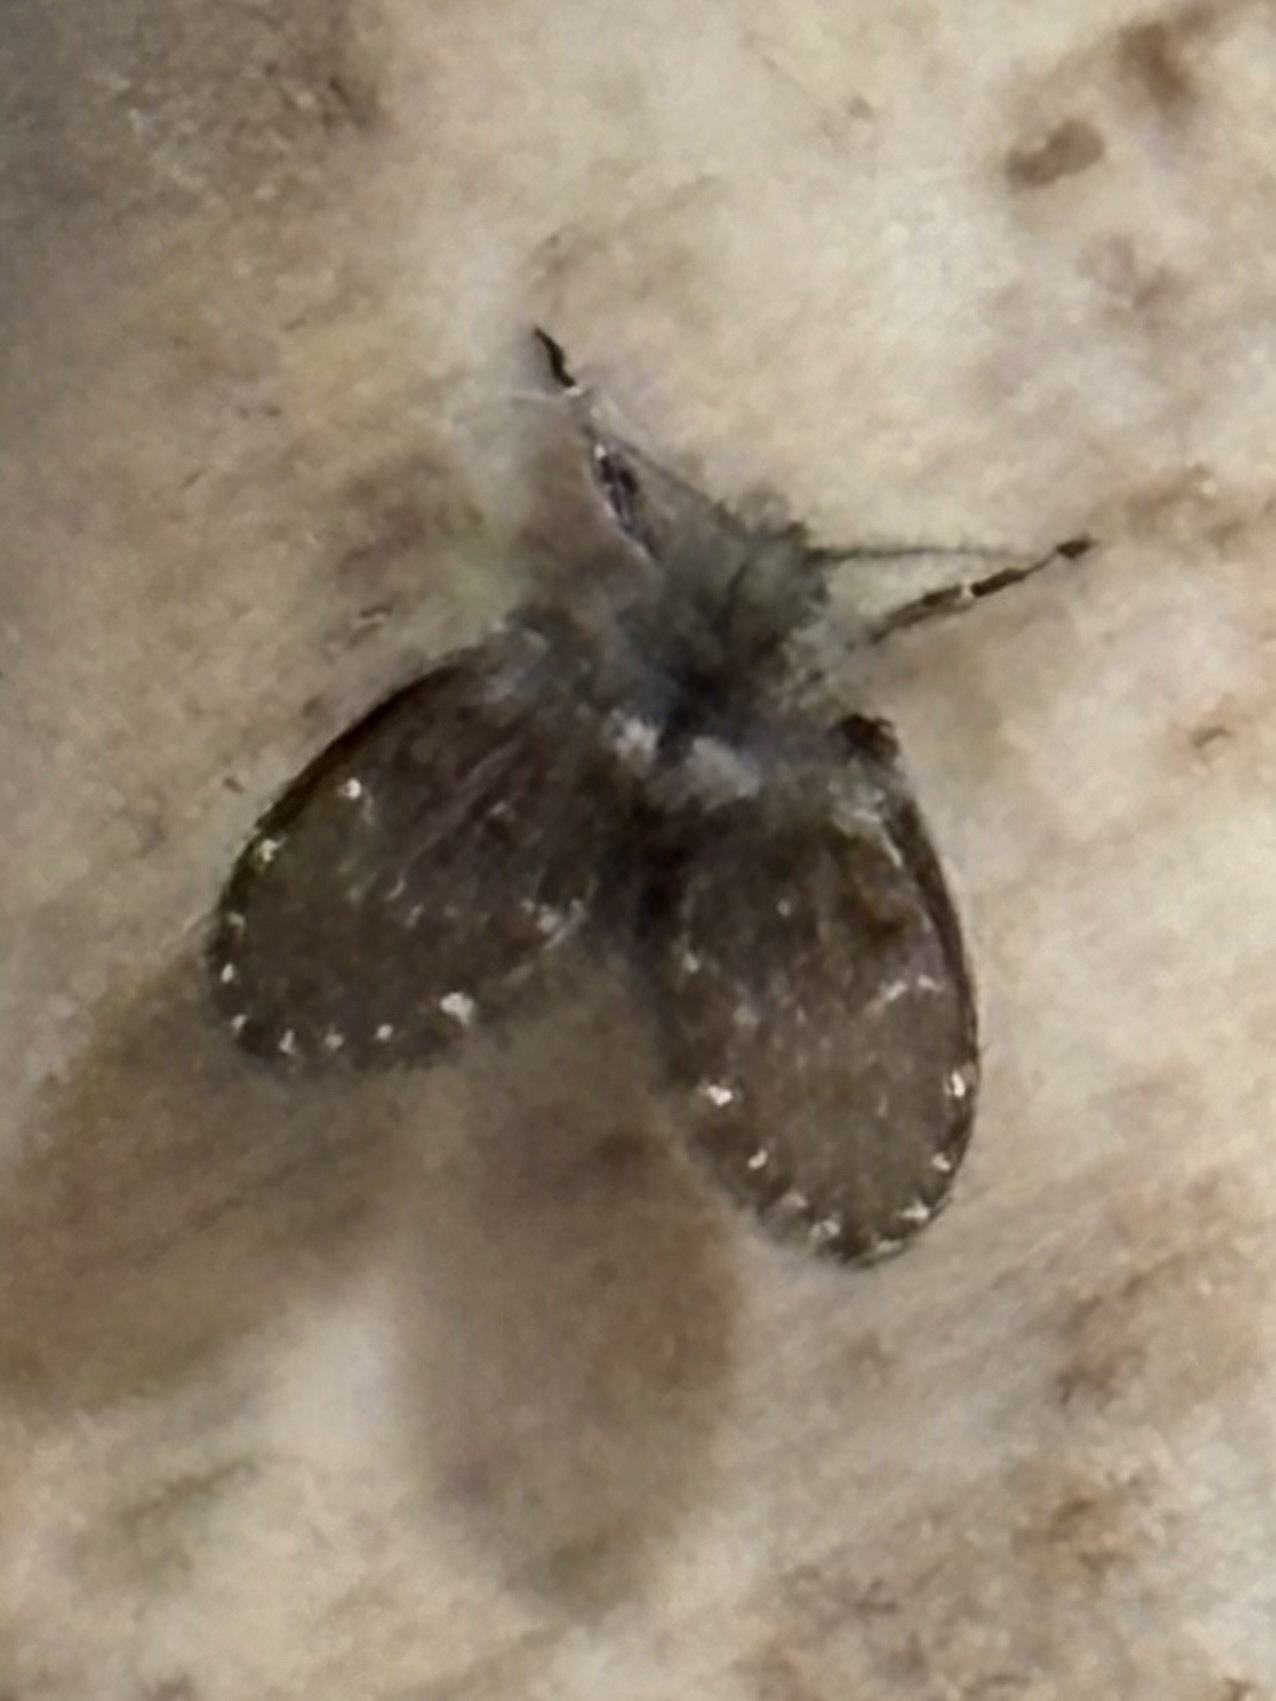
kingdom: Animalia
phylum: Arthropoda
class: Insecta
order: Diptera
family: Psychodidae
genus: Clogmia
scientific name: Clogmia albipunctatus
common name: White-spotted moth fly
